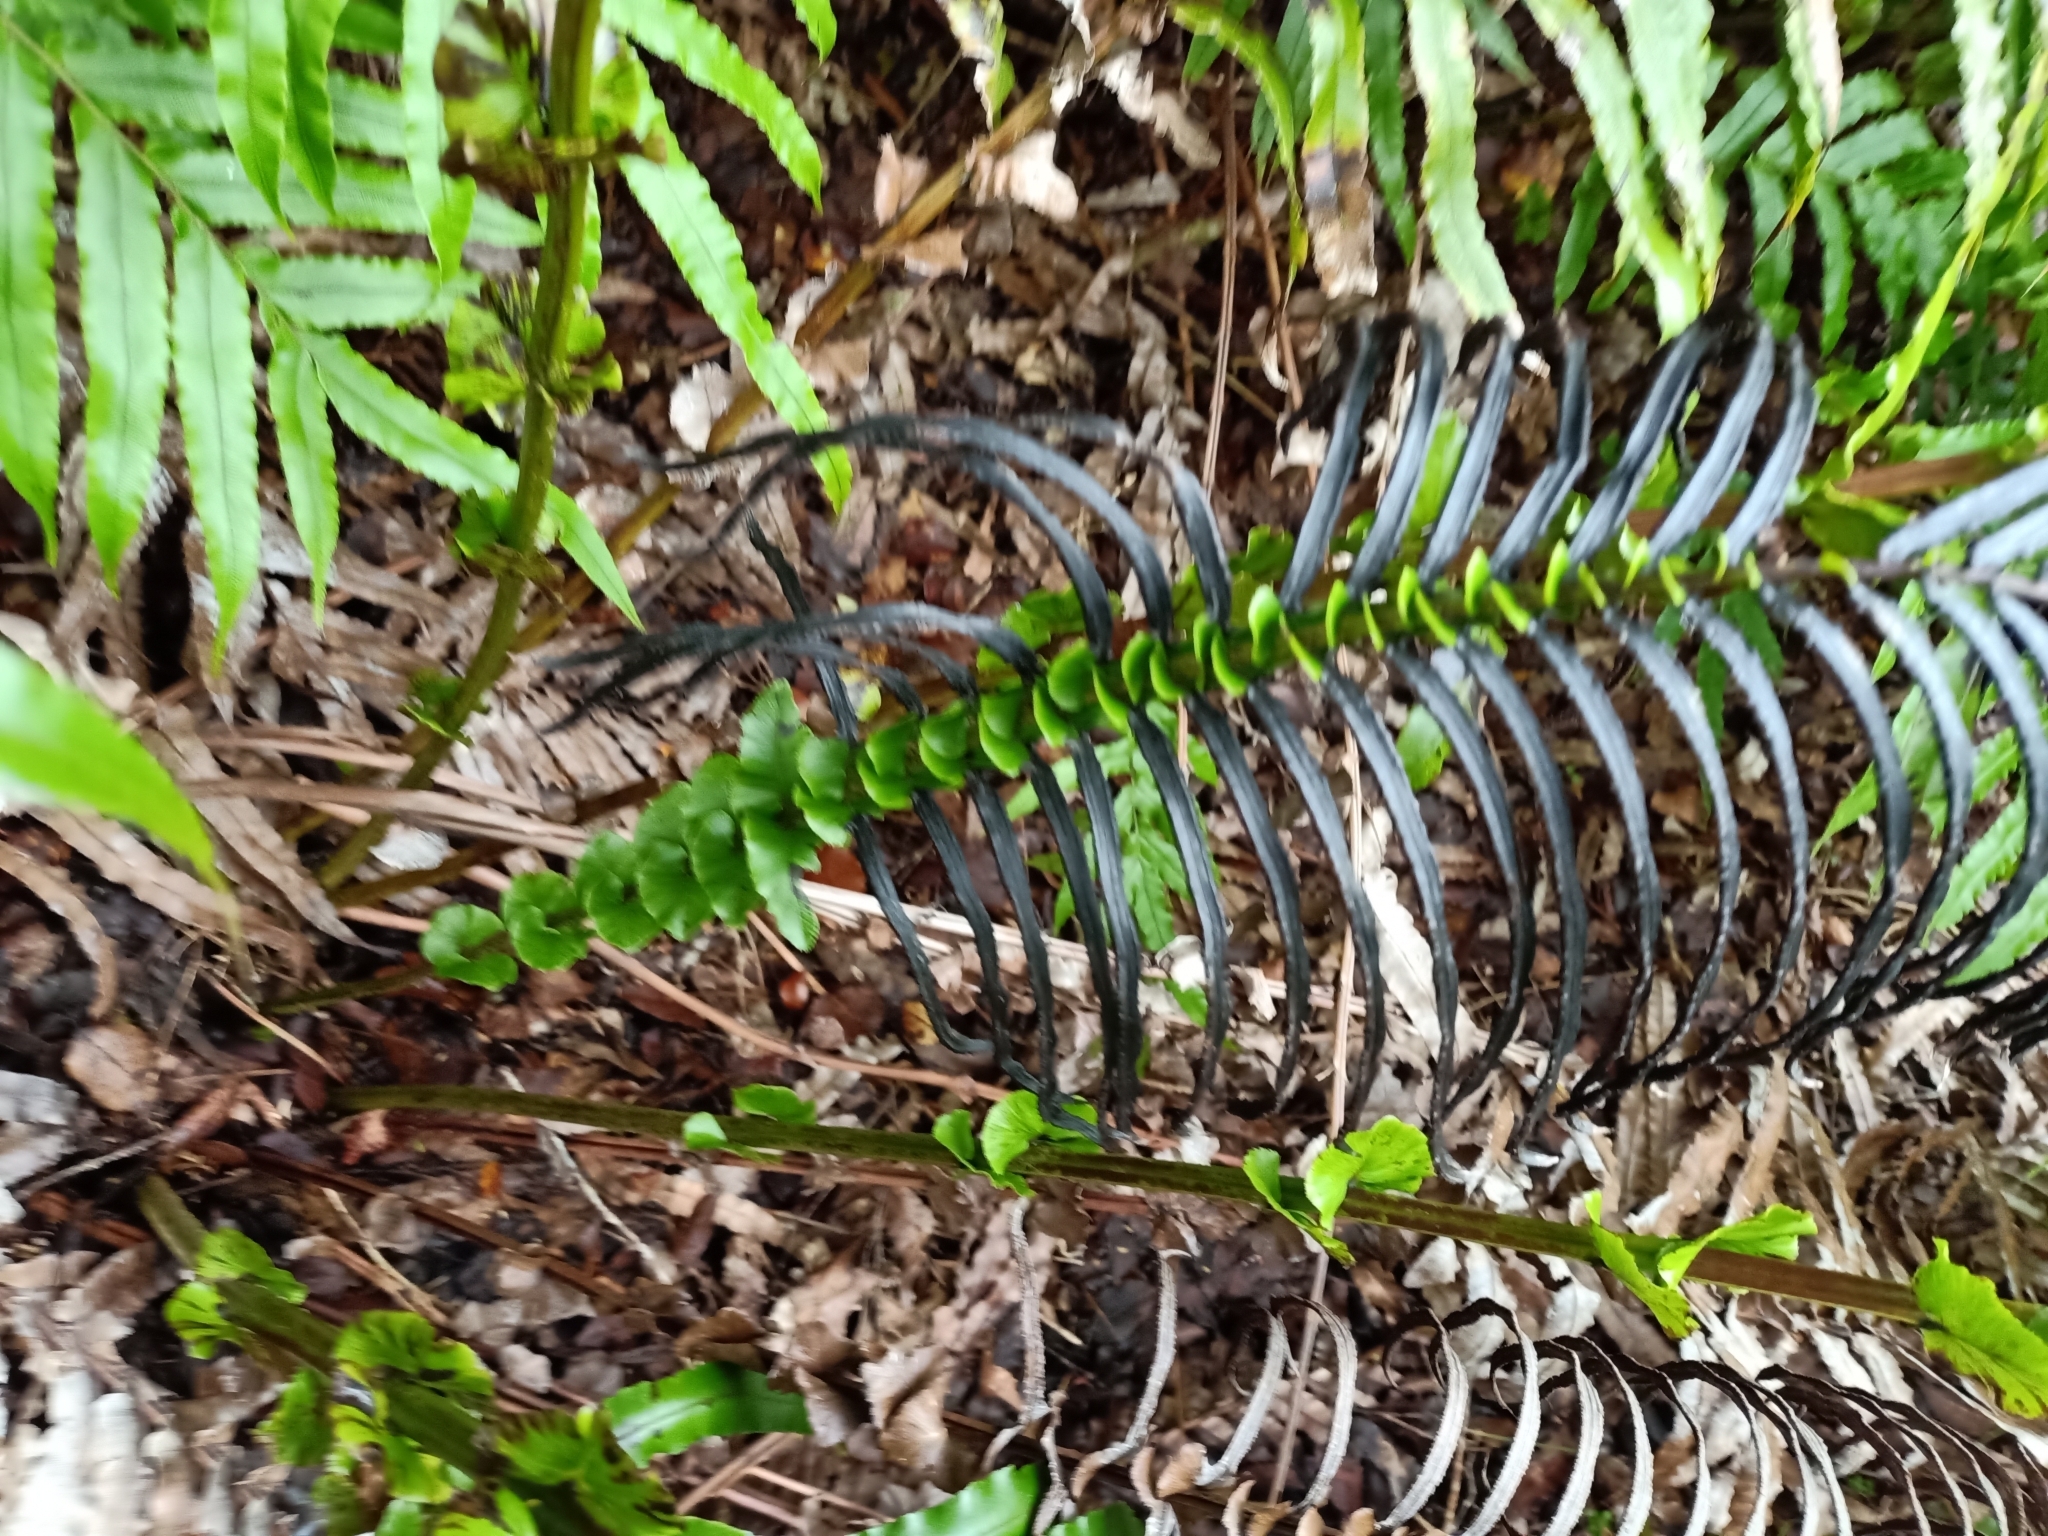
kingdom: Plantae
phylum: Tracheophyta
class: Polypodiopsida
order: Polypodiales
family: Blechnaceae
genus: Parablechnum
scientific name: Parablechnum novae-zelandiae
